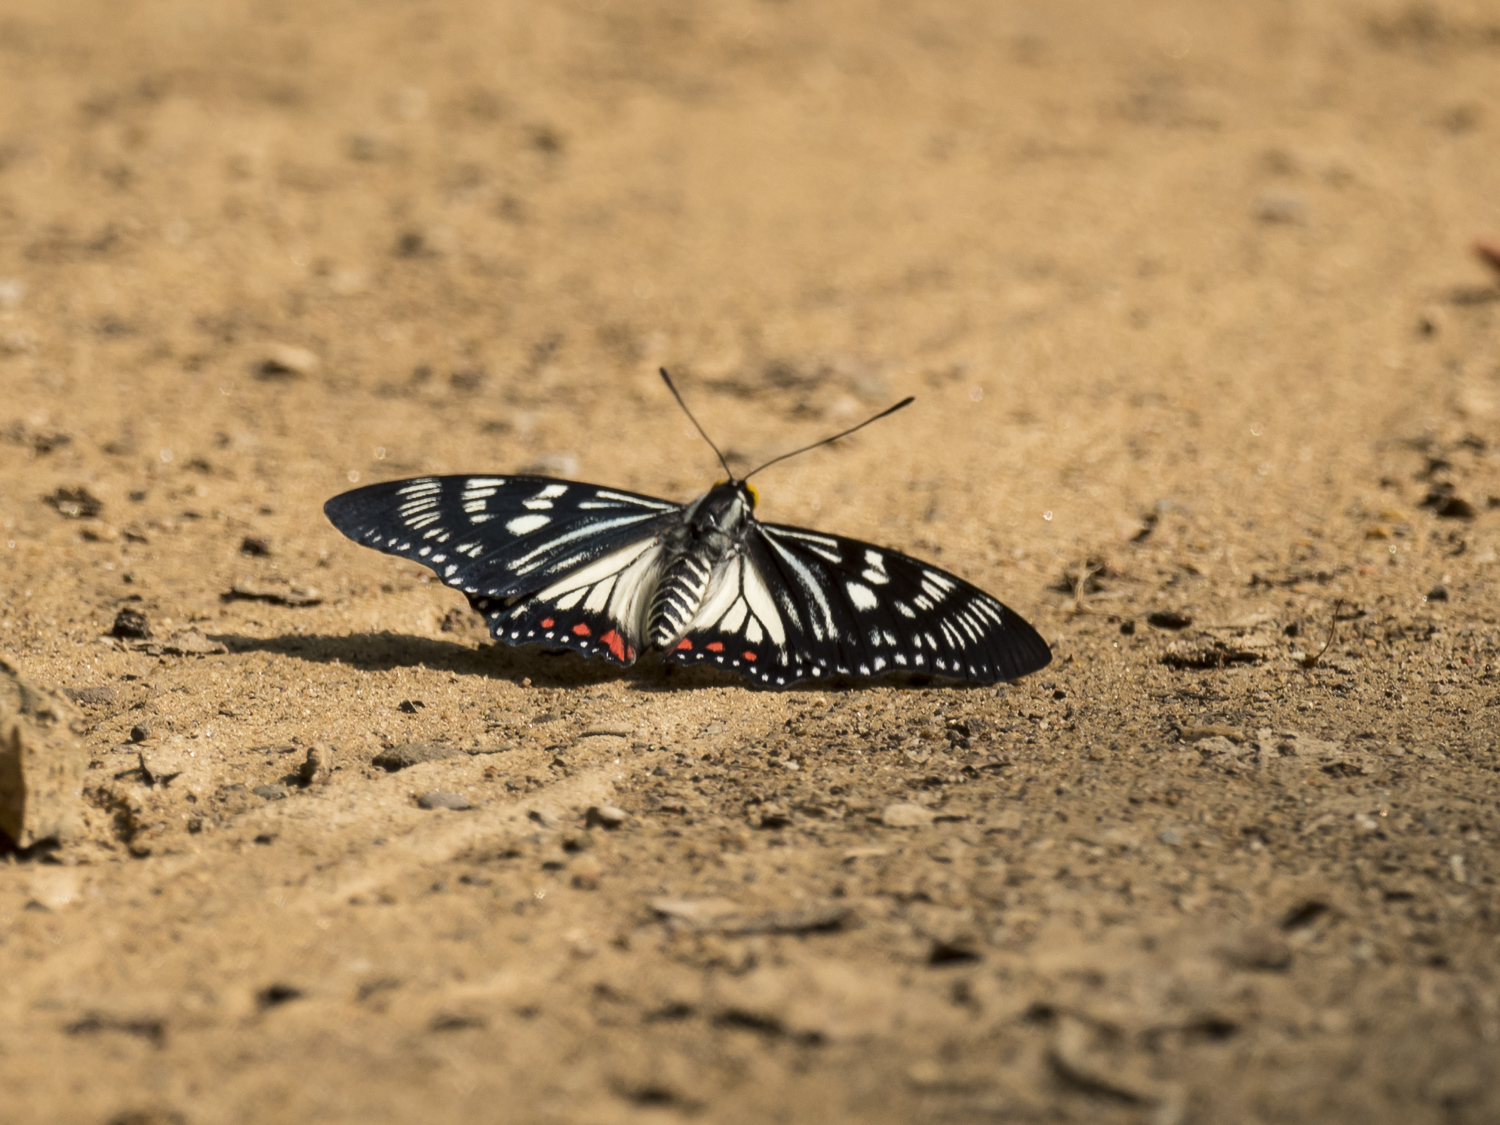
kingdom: Animalia
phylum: Arthropoda
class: Insecta
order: Lepidoptera
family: Nymphalidae
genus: Euripus
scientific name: Euripus consimilis
